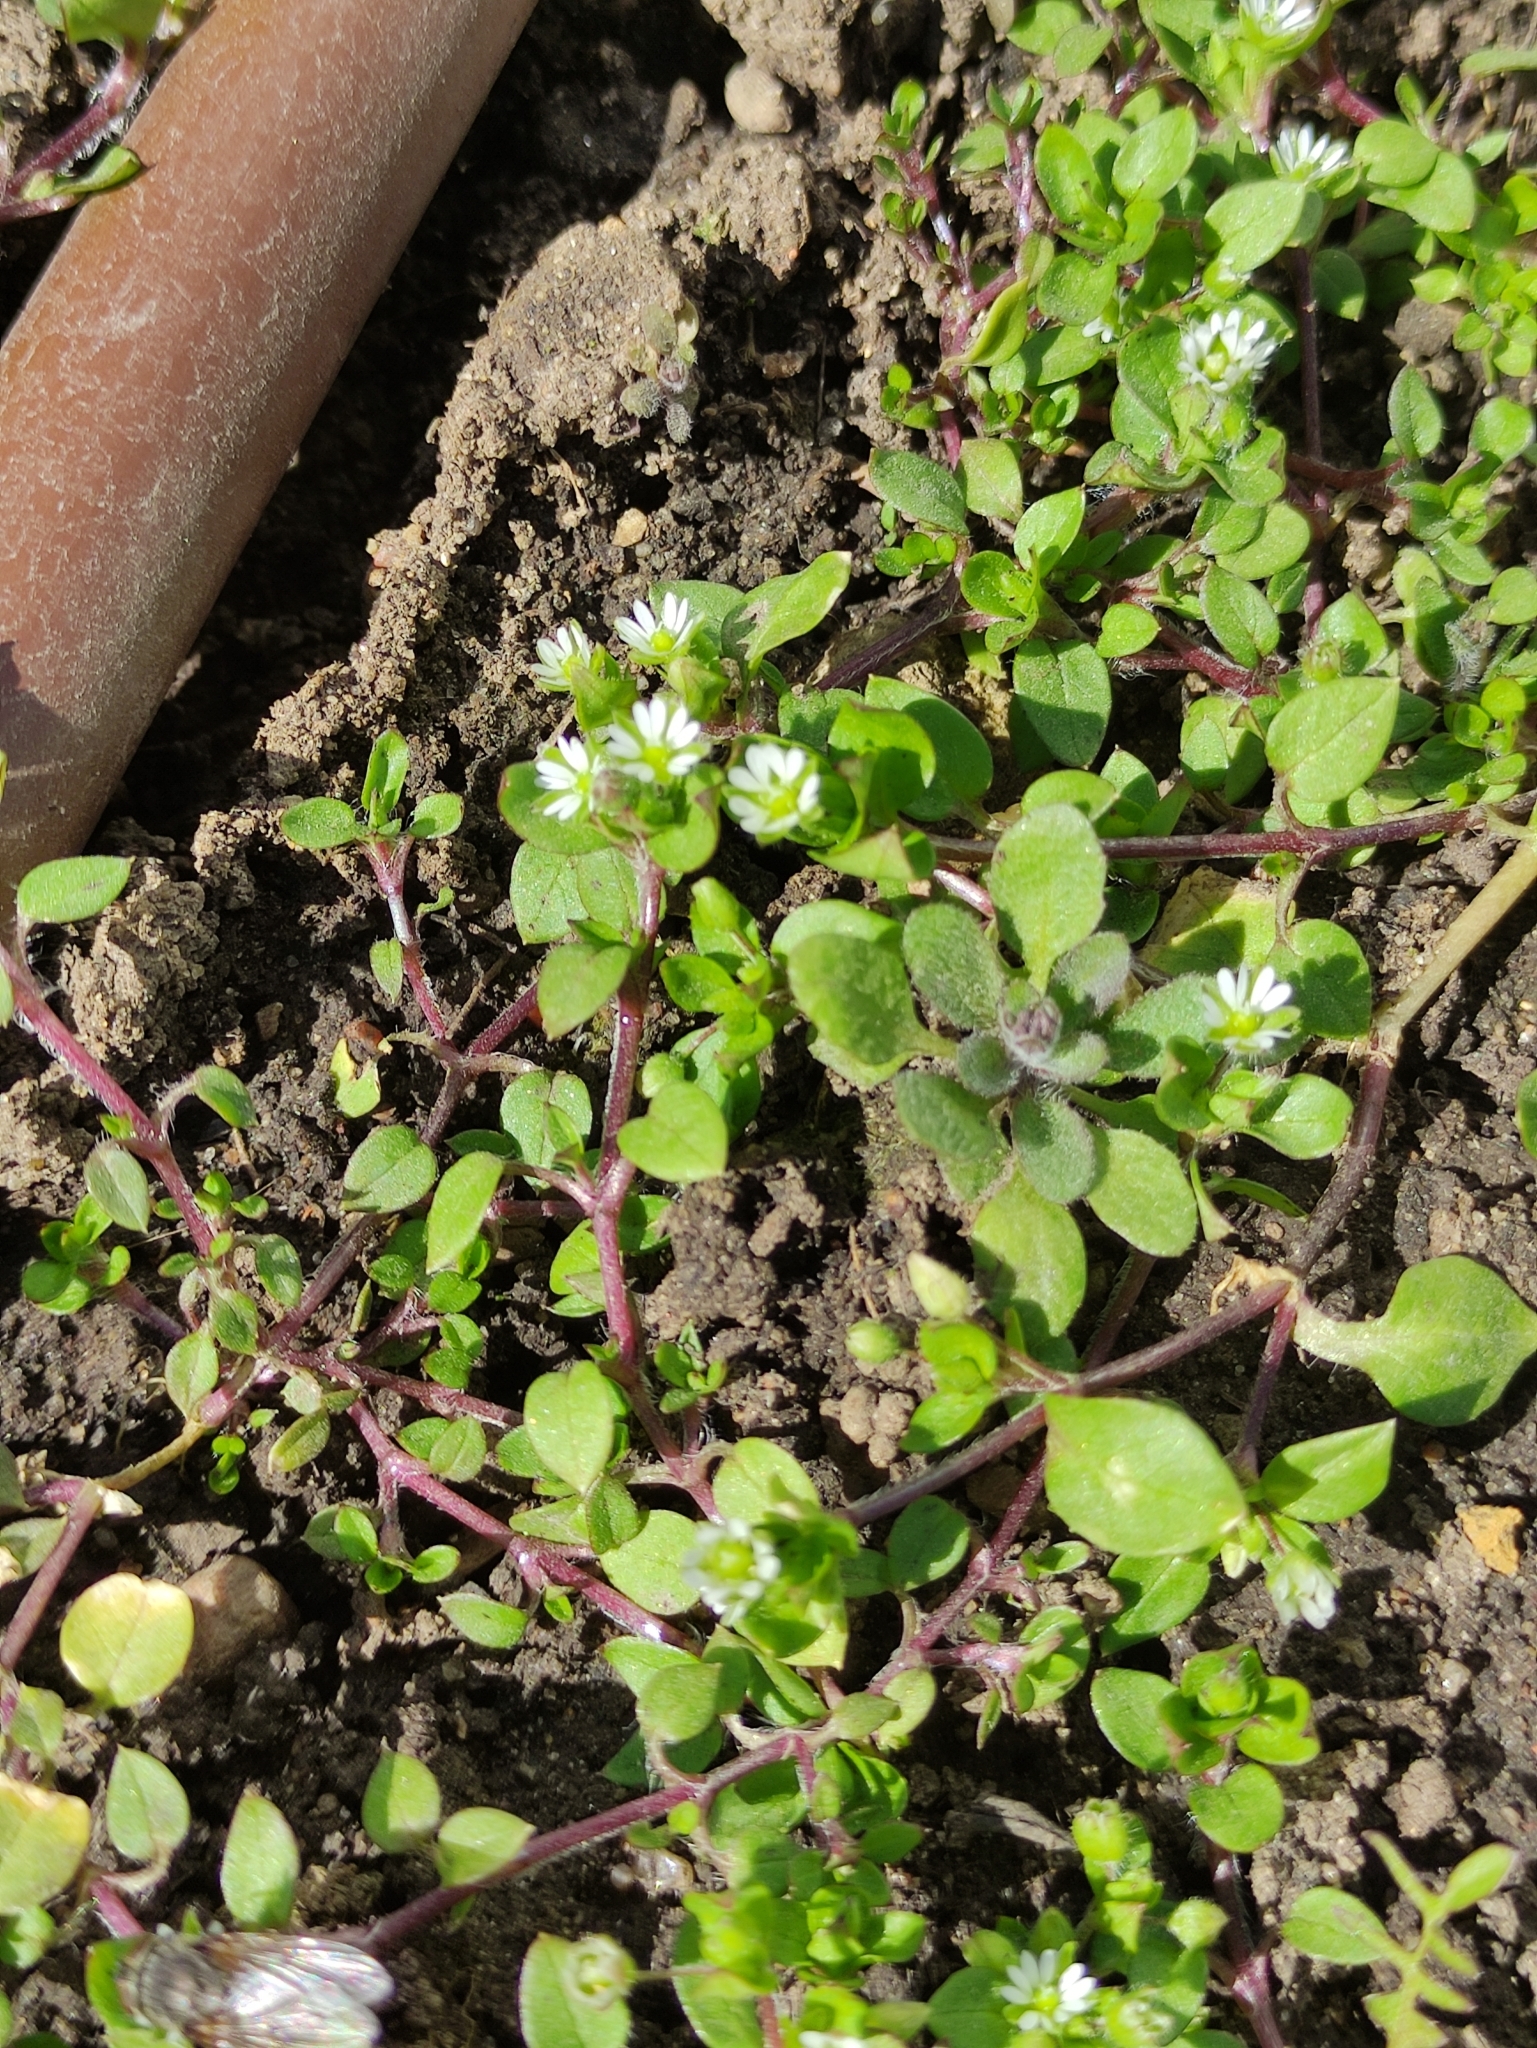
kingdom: Plantae
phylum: Tracheophyta
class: Magnoliopsida
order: Caryophyllales
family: Caryophyllaceae
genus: Stellaria
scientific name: Stellaria media
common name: Common chickweed
